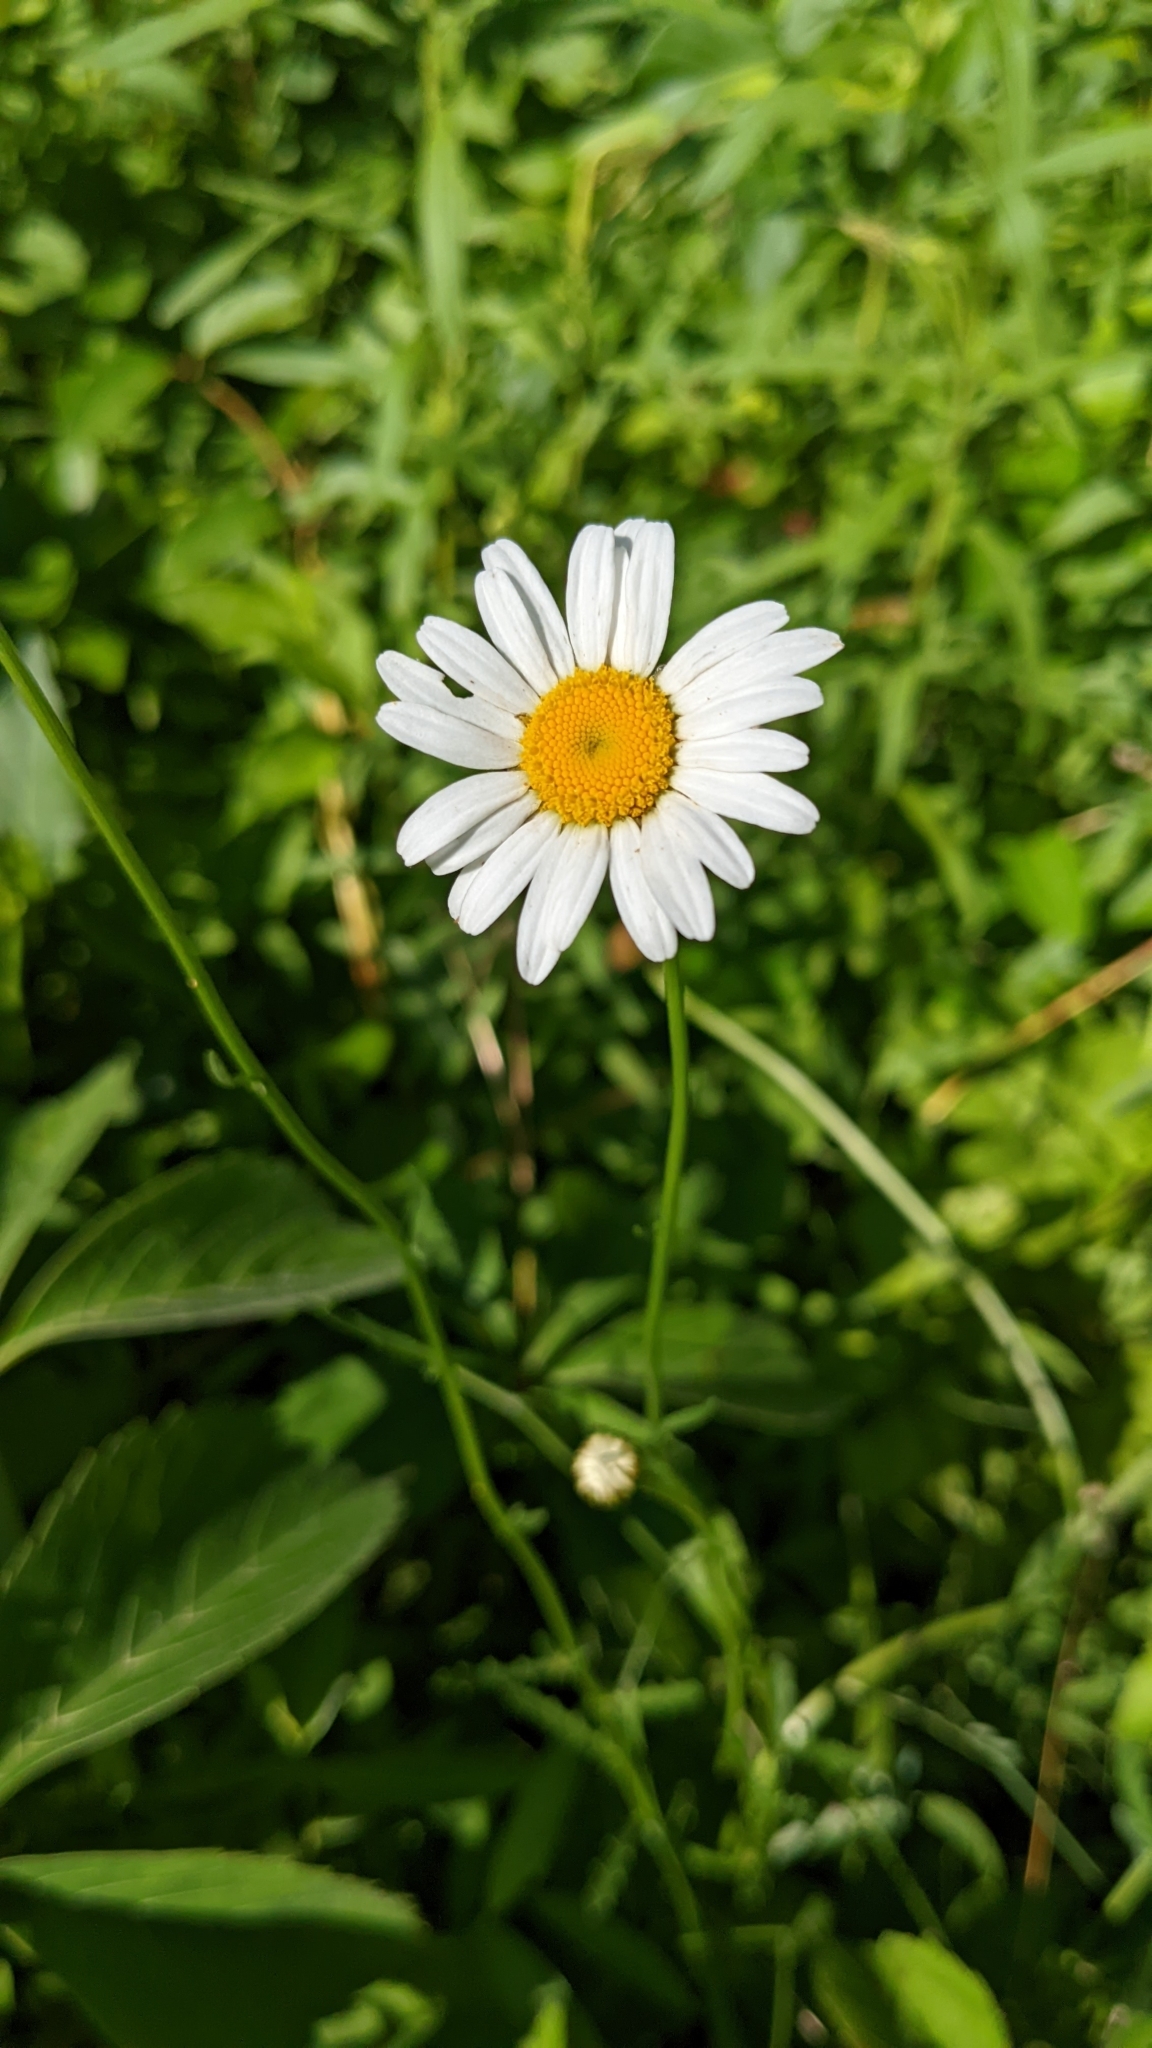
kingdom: Plantae
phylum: Tracheophyta
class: Magnoliopsida
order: Asterales
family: Asteraceae
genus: Leucanthemum
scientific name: Leucanthemum vulgare
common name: Oxeye daisy
